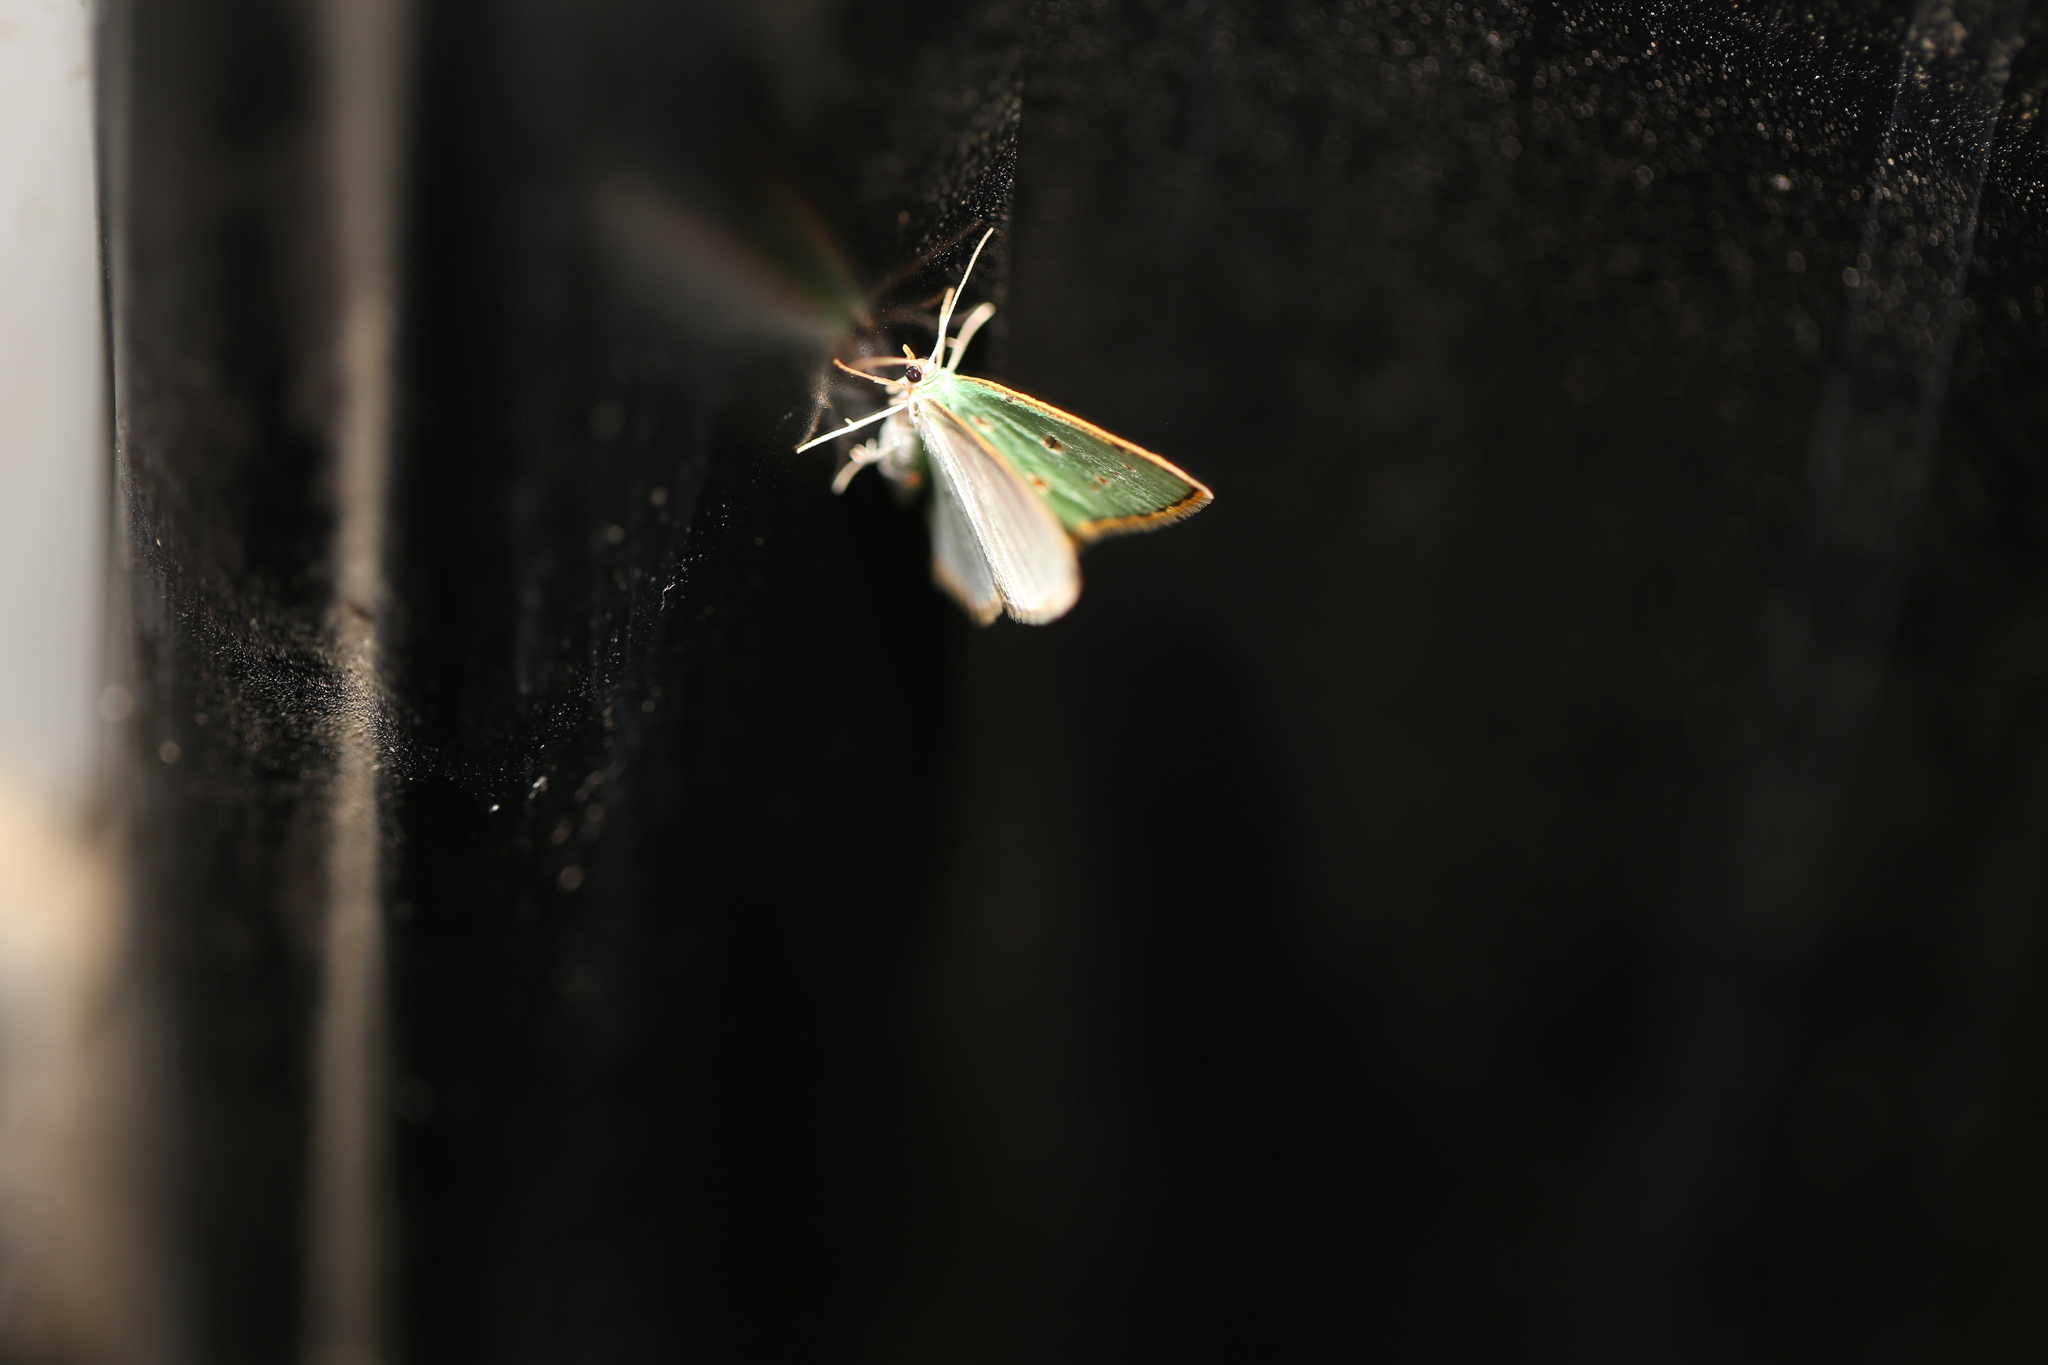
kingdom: Animalia
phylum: Arthropoda
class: Insecta
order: Lepidoptera
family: Geometridae
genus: Comostola
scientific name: Comostola laesaria
